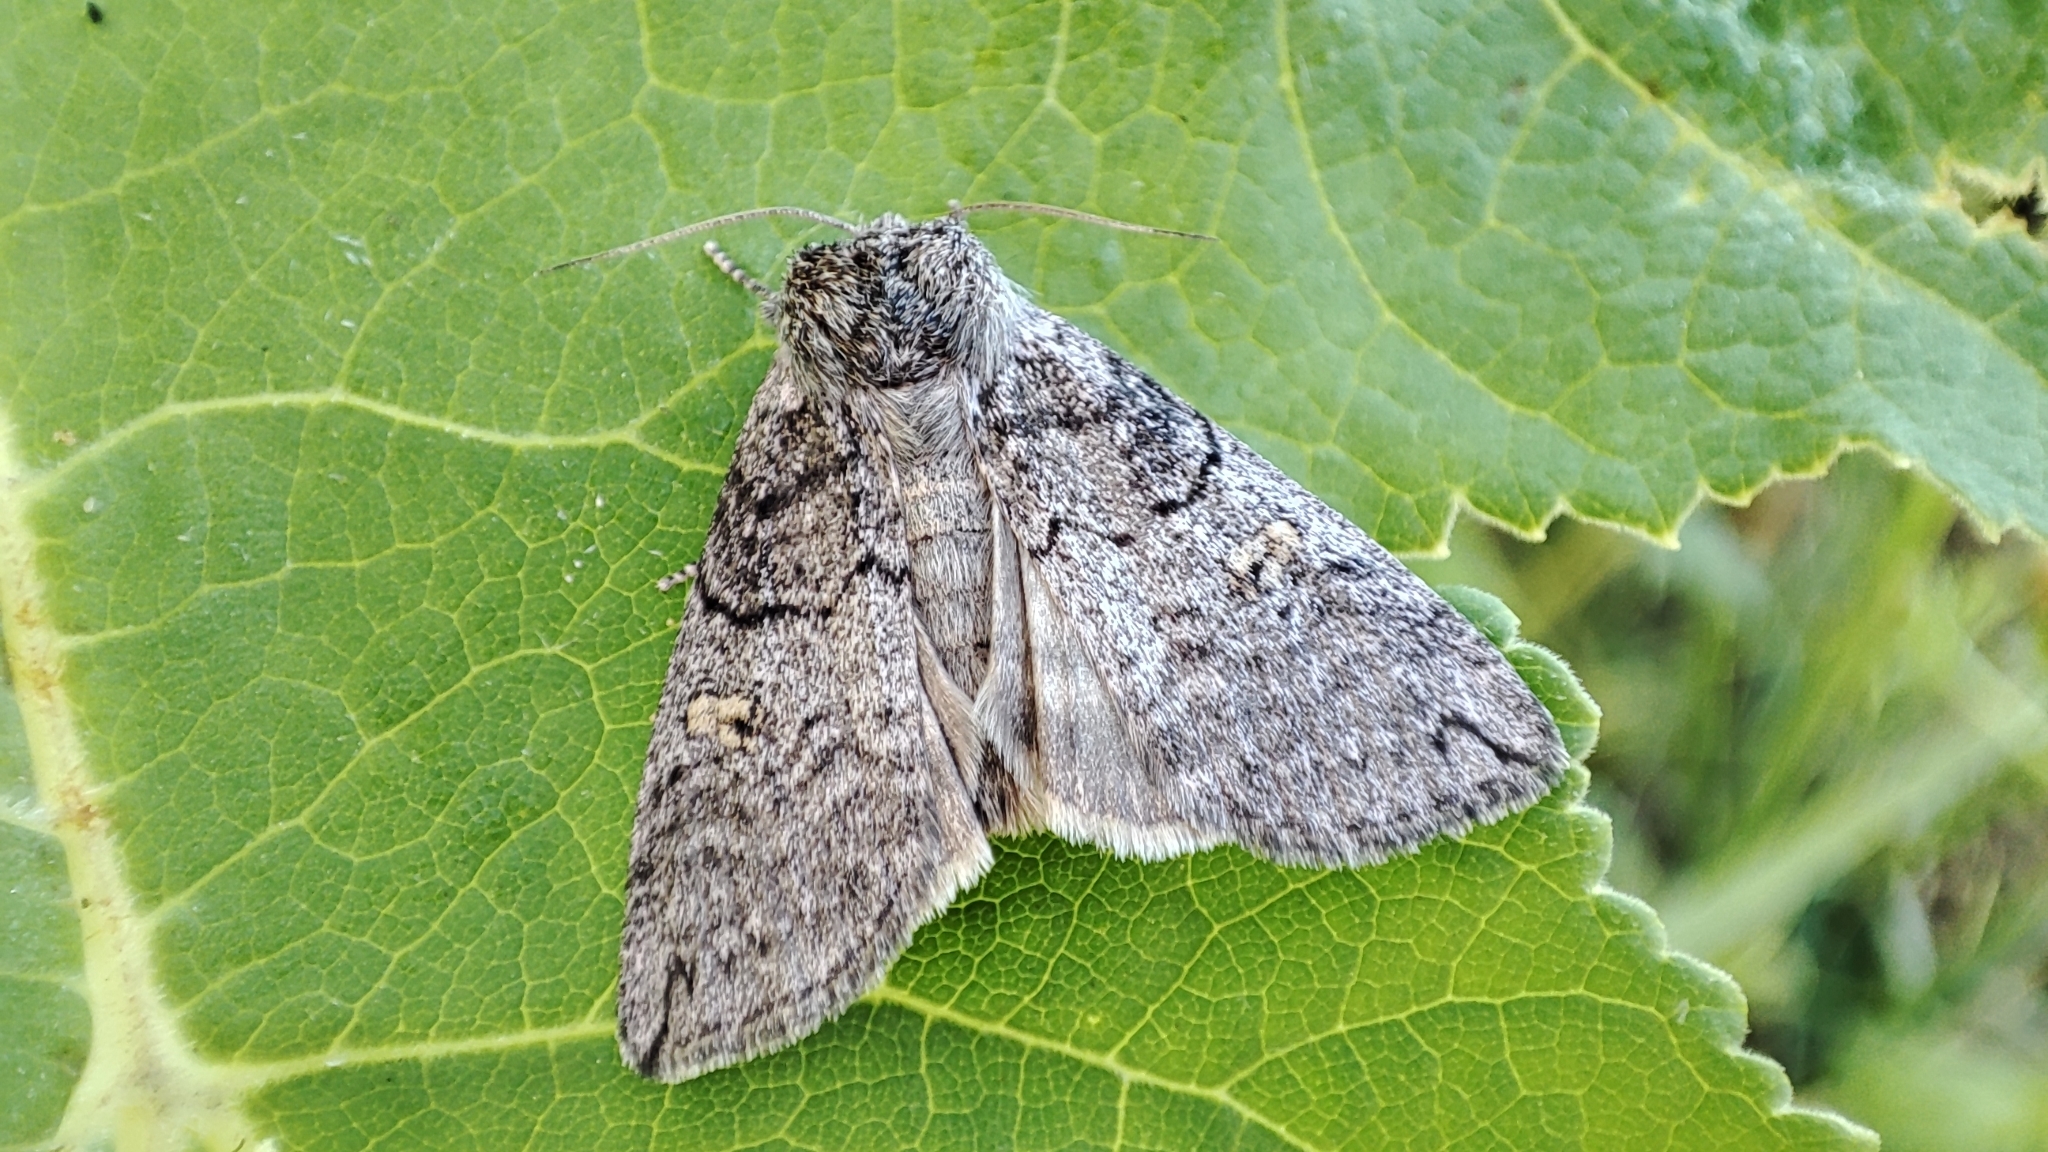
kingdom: Animalia
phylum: Arthropoda
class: Insecta
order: Lepidoptera
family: Drepanidae
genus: Tethea
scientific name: Tethea or
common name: Poplar lutestring
